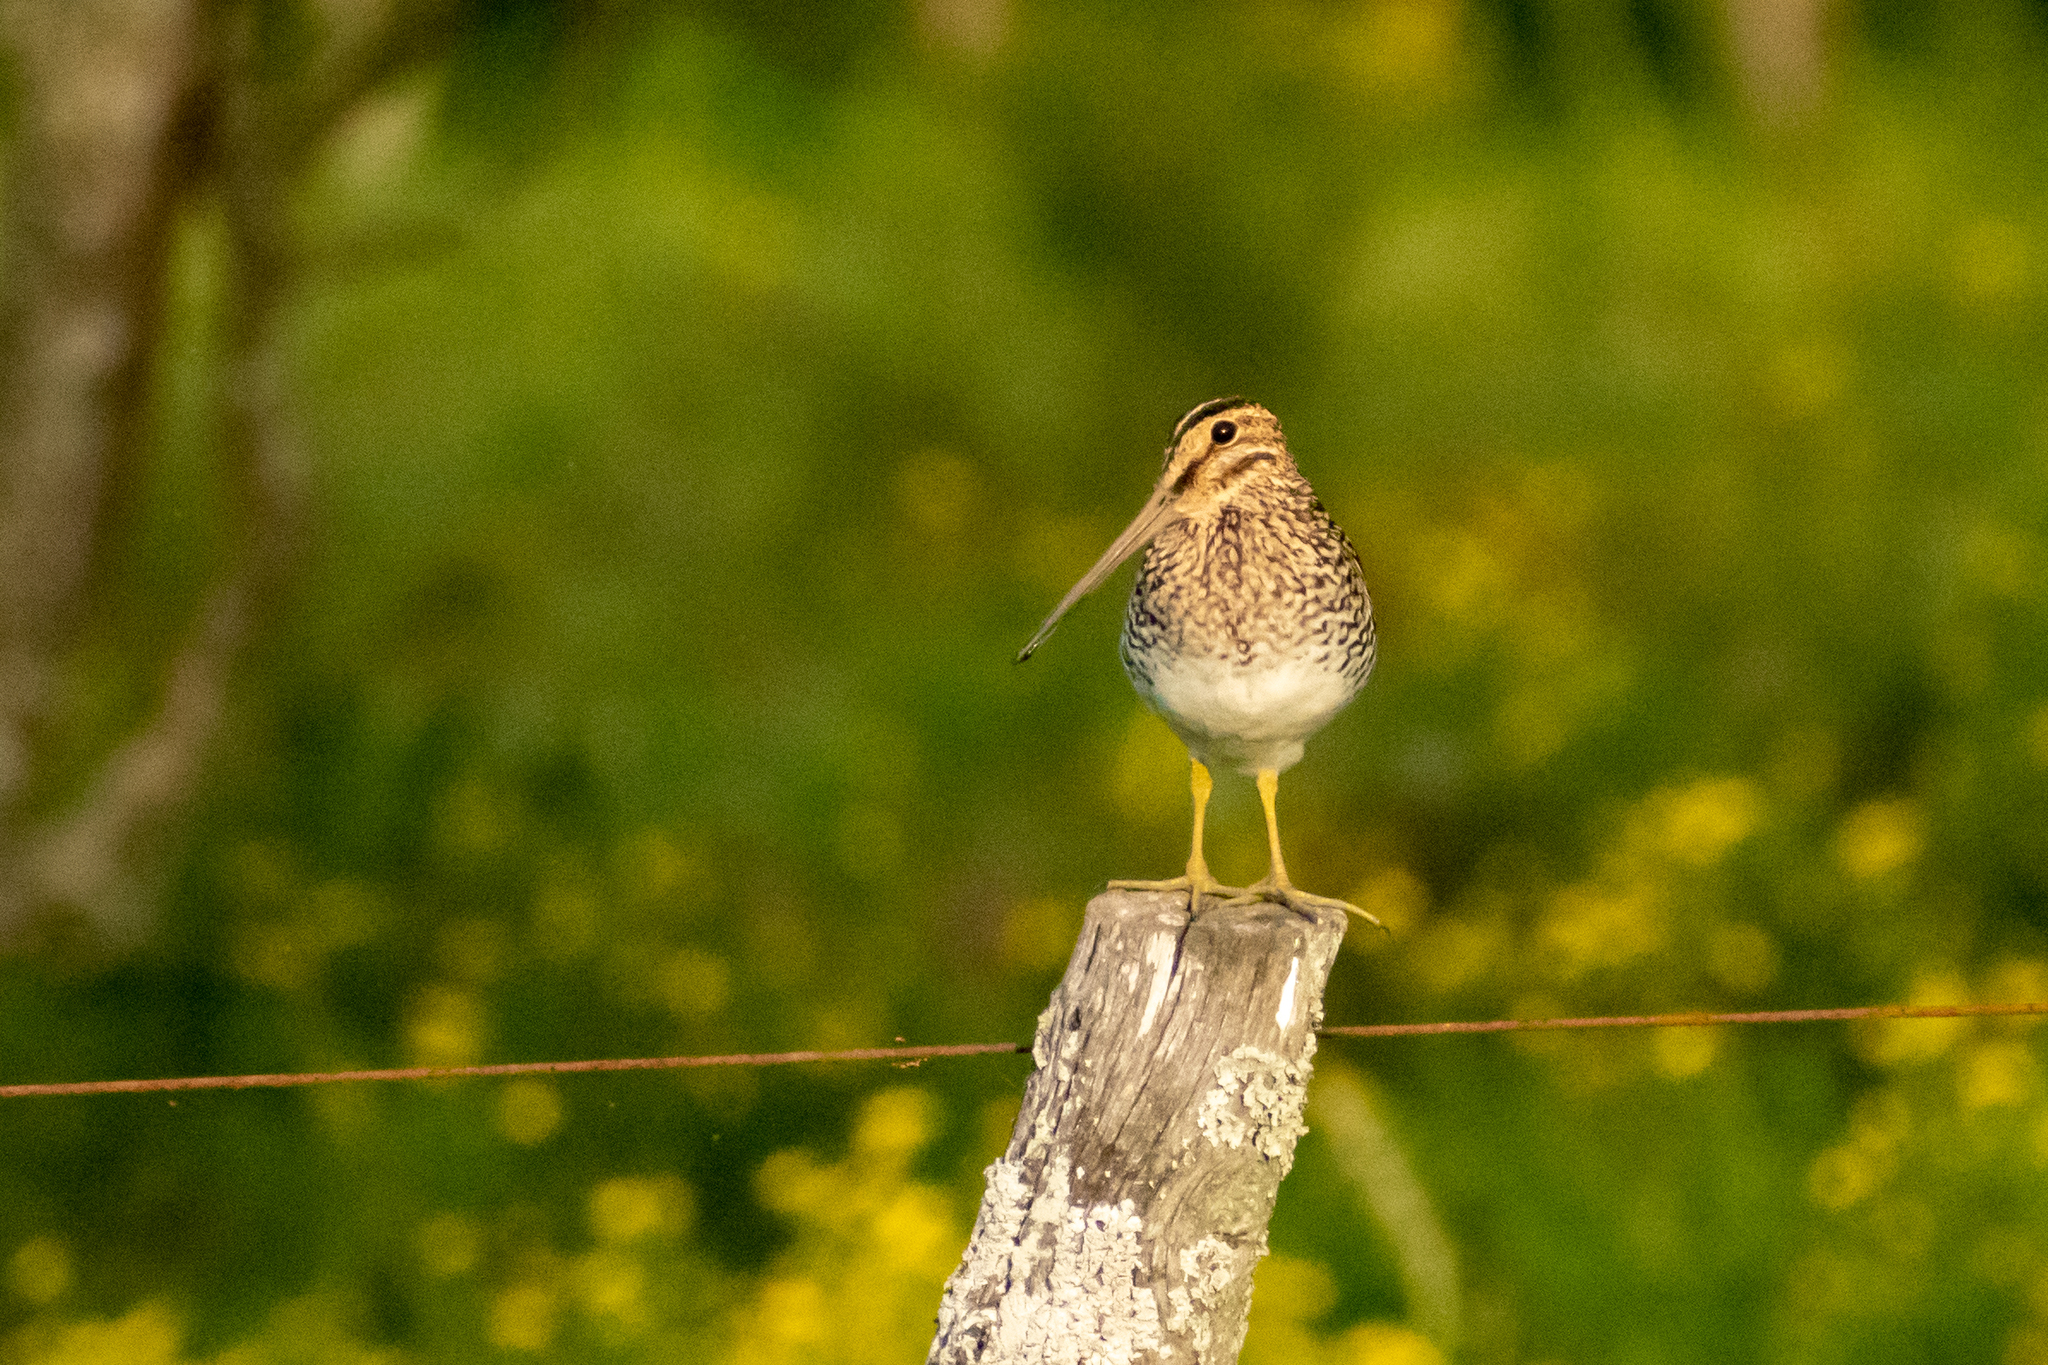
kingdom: Animalia
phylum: Chordata
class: Aves
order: Charadriiformes
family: Scolopacidae
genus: Gallinago
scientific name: Gallinago paraguaiae
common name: South american snipe
